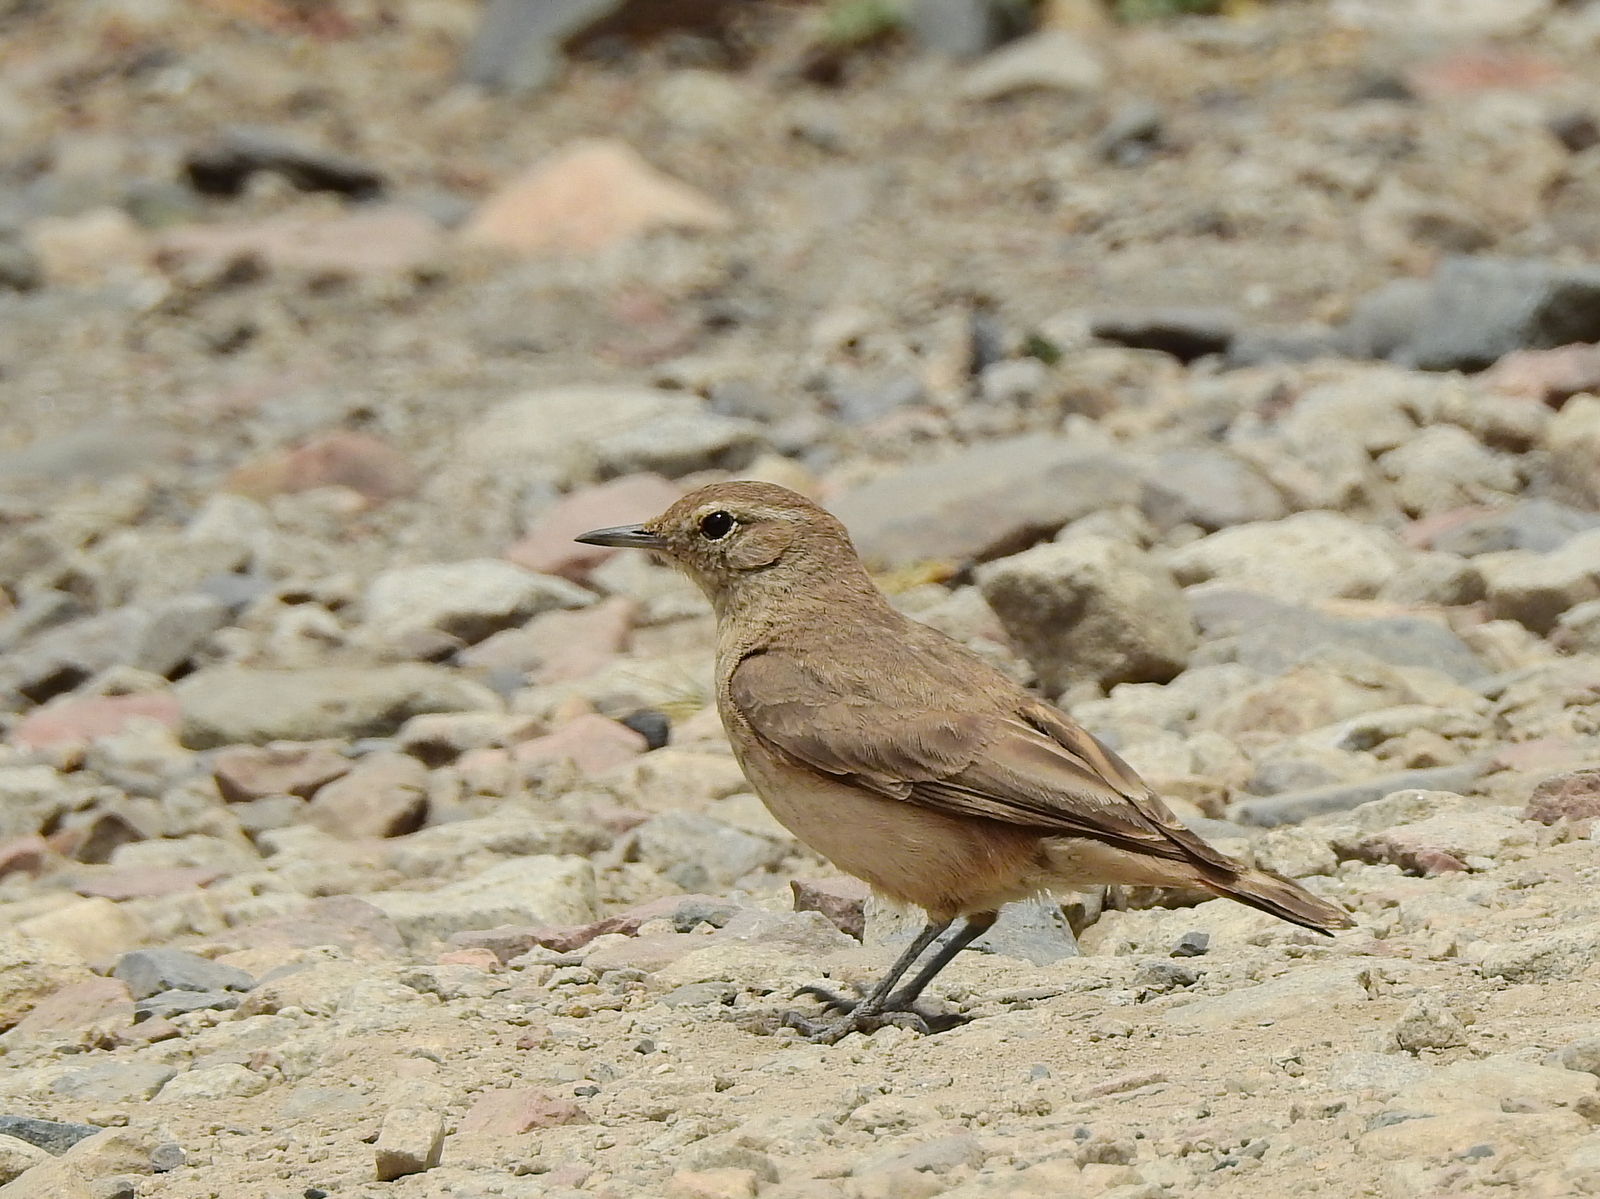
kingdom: Animalia
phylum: Chordata
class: Aves
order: Passeriformes
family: Furnariidae
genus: Geositta
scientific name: Geositta rufipennis
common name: Rufous-banded miner
